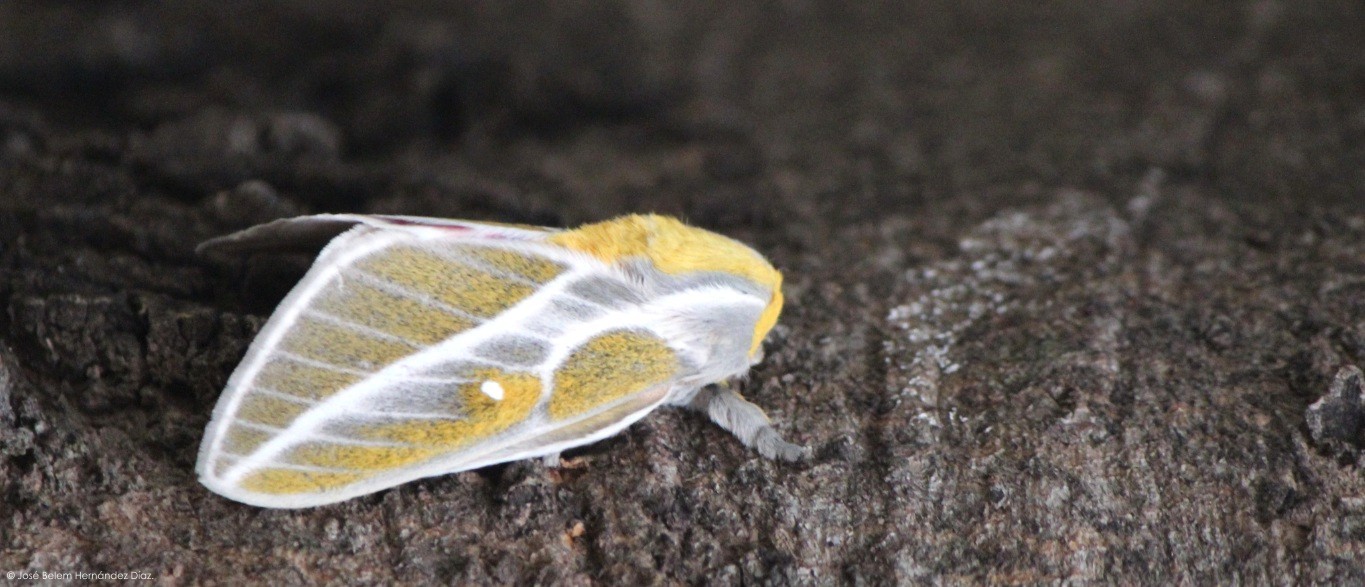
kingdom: Animalia
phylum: Arthropoda
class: Insecta
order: Lepidoptera
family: Saturniidae
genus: Syssphinx
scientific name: Syssphinx albolineata
